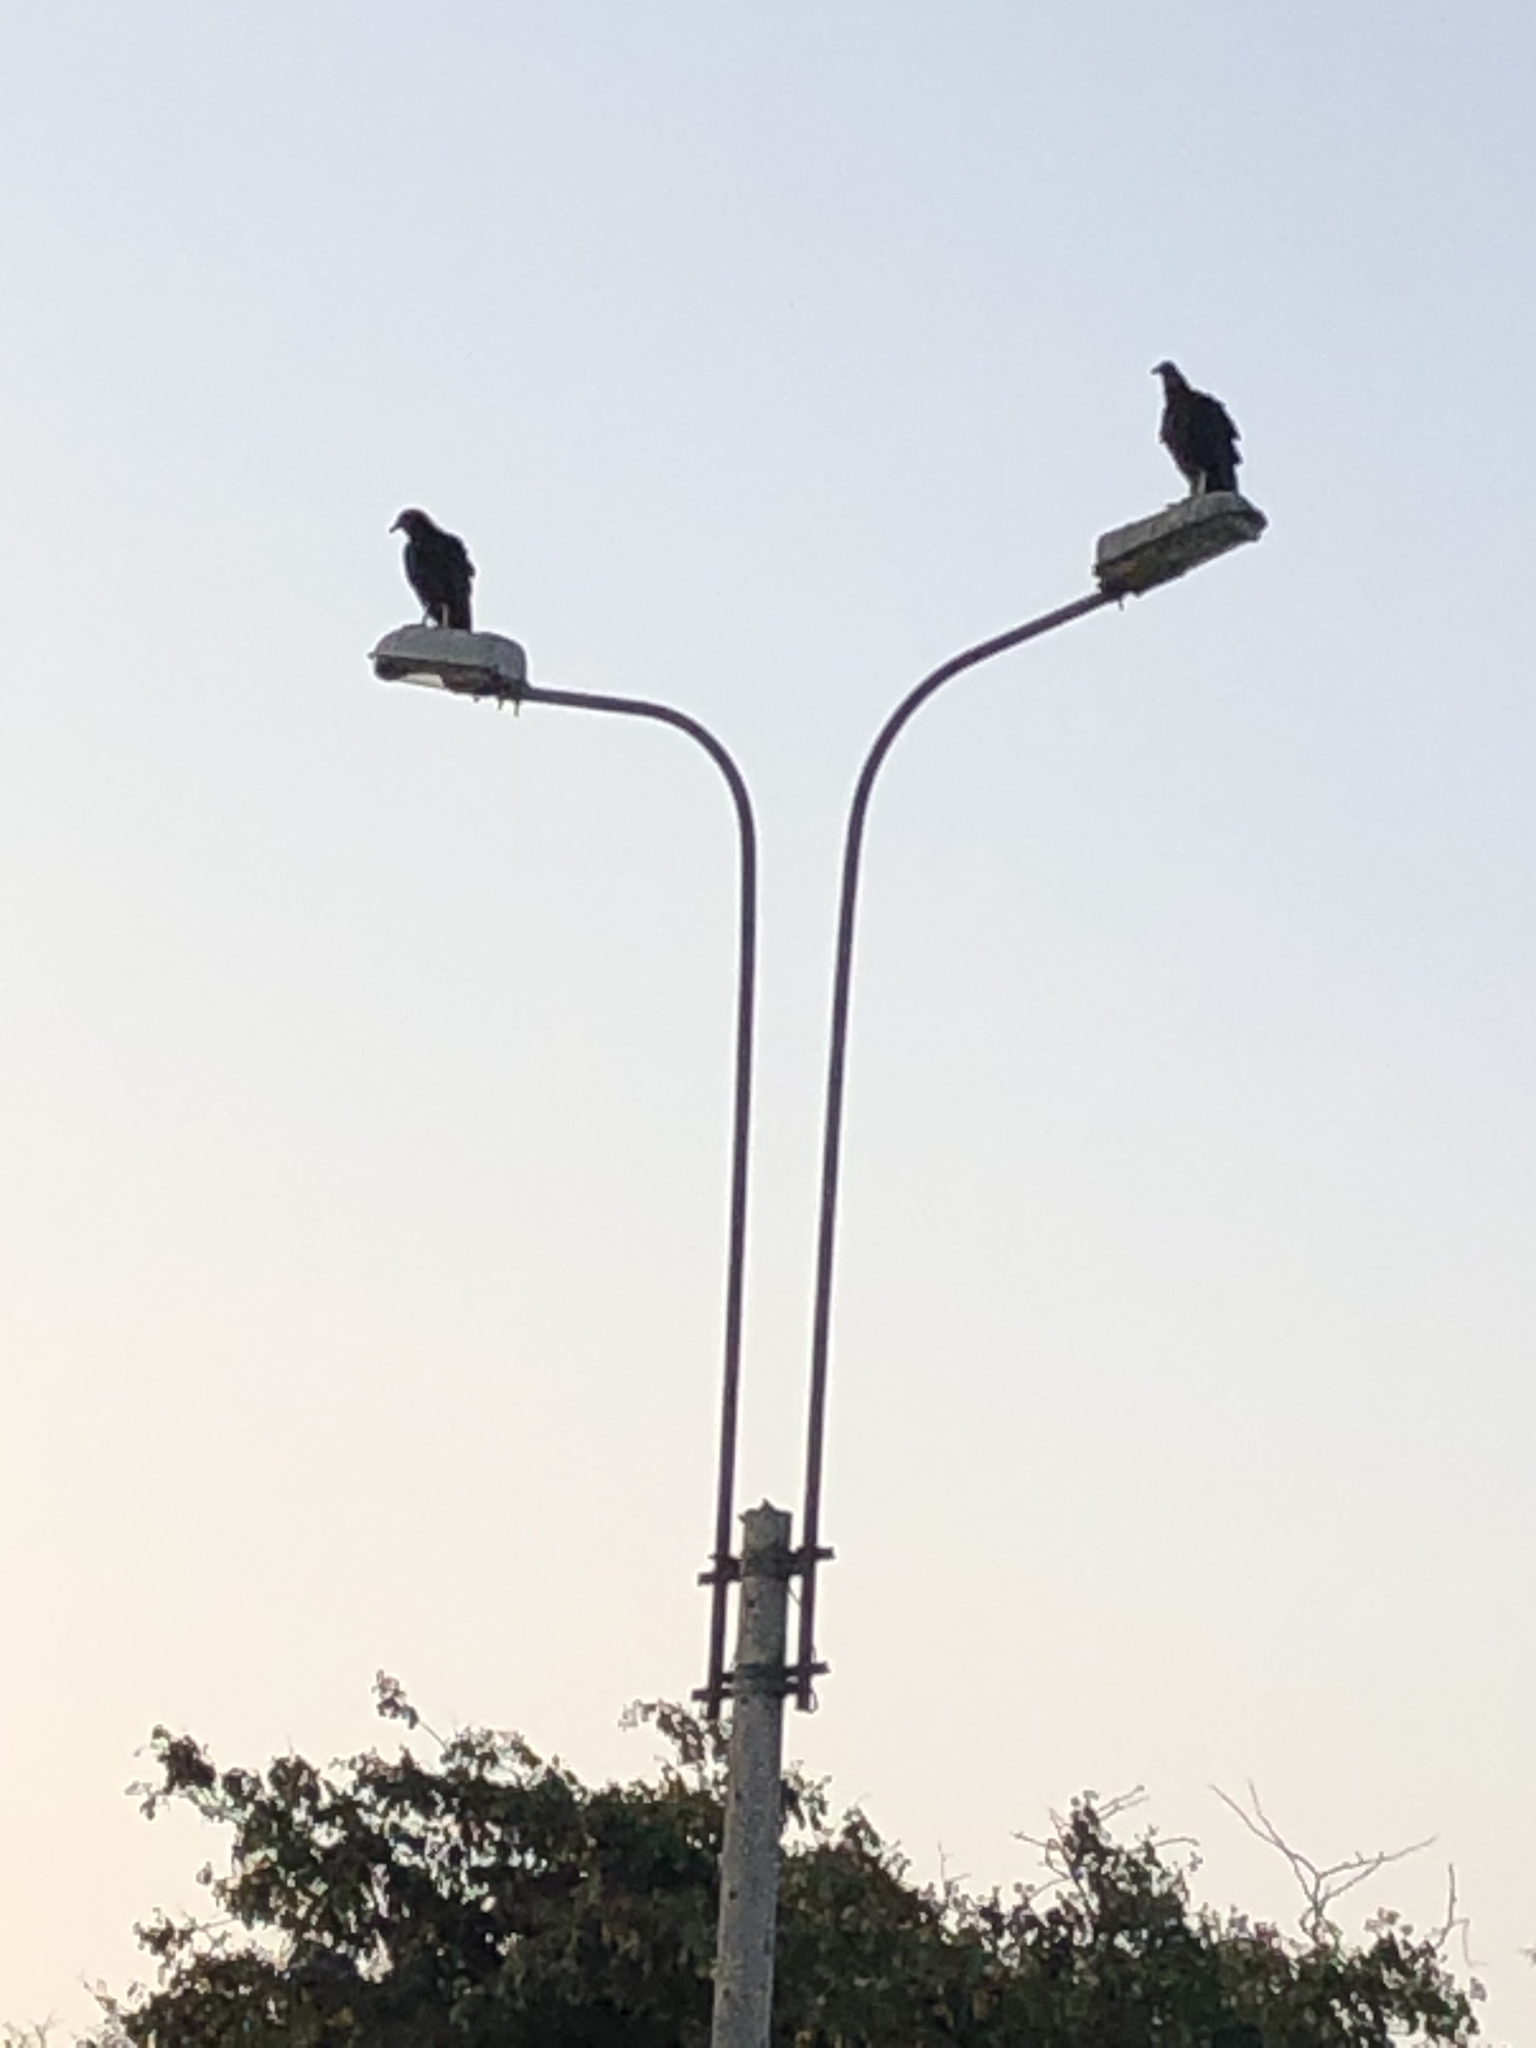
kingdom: Animalia
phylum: Chordata
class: Aves
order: Accipitriformes
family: Cathartidae
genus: Coragyps
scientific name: Coragyps atratus
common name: Black vulture
